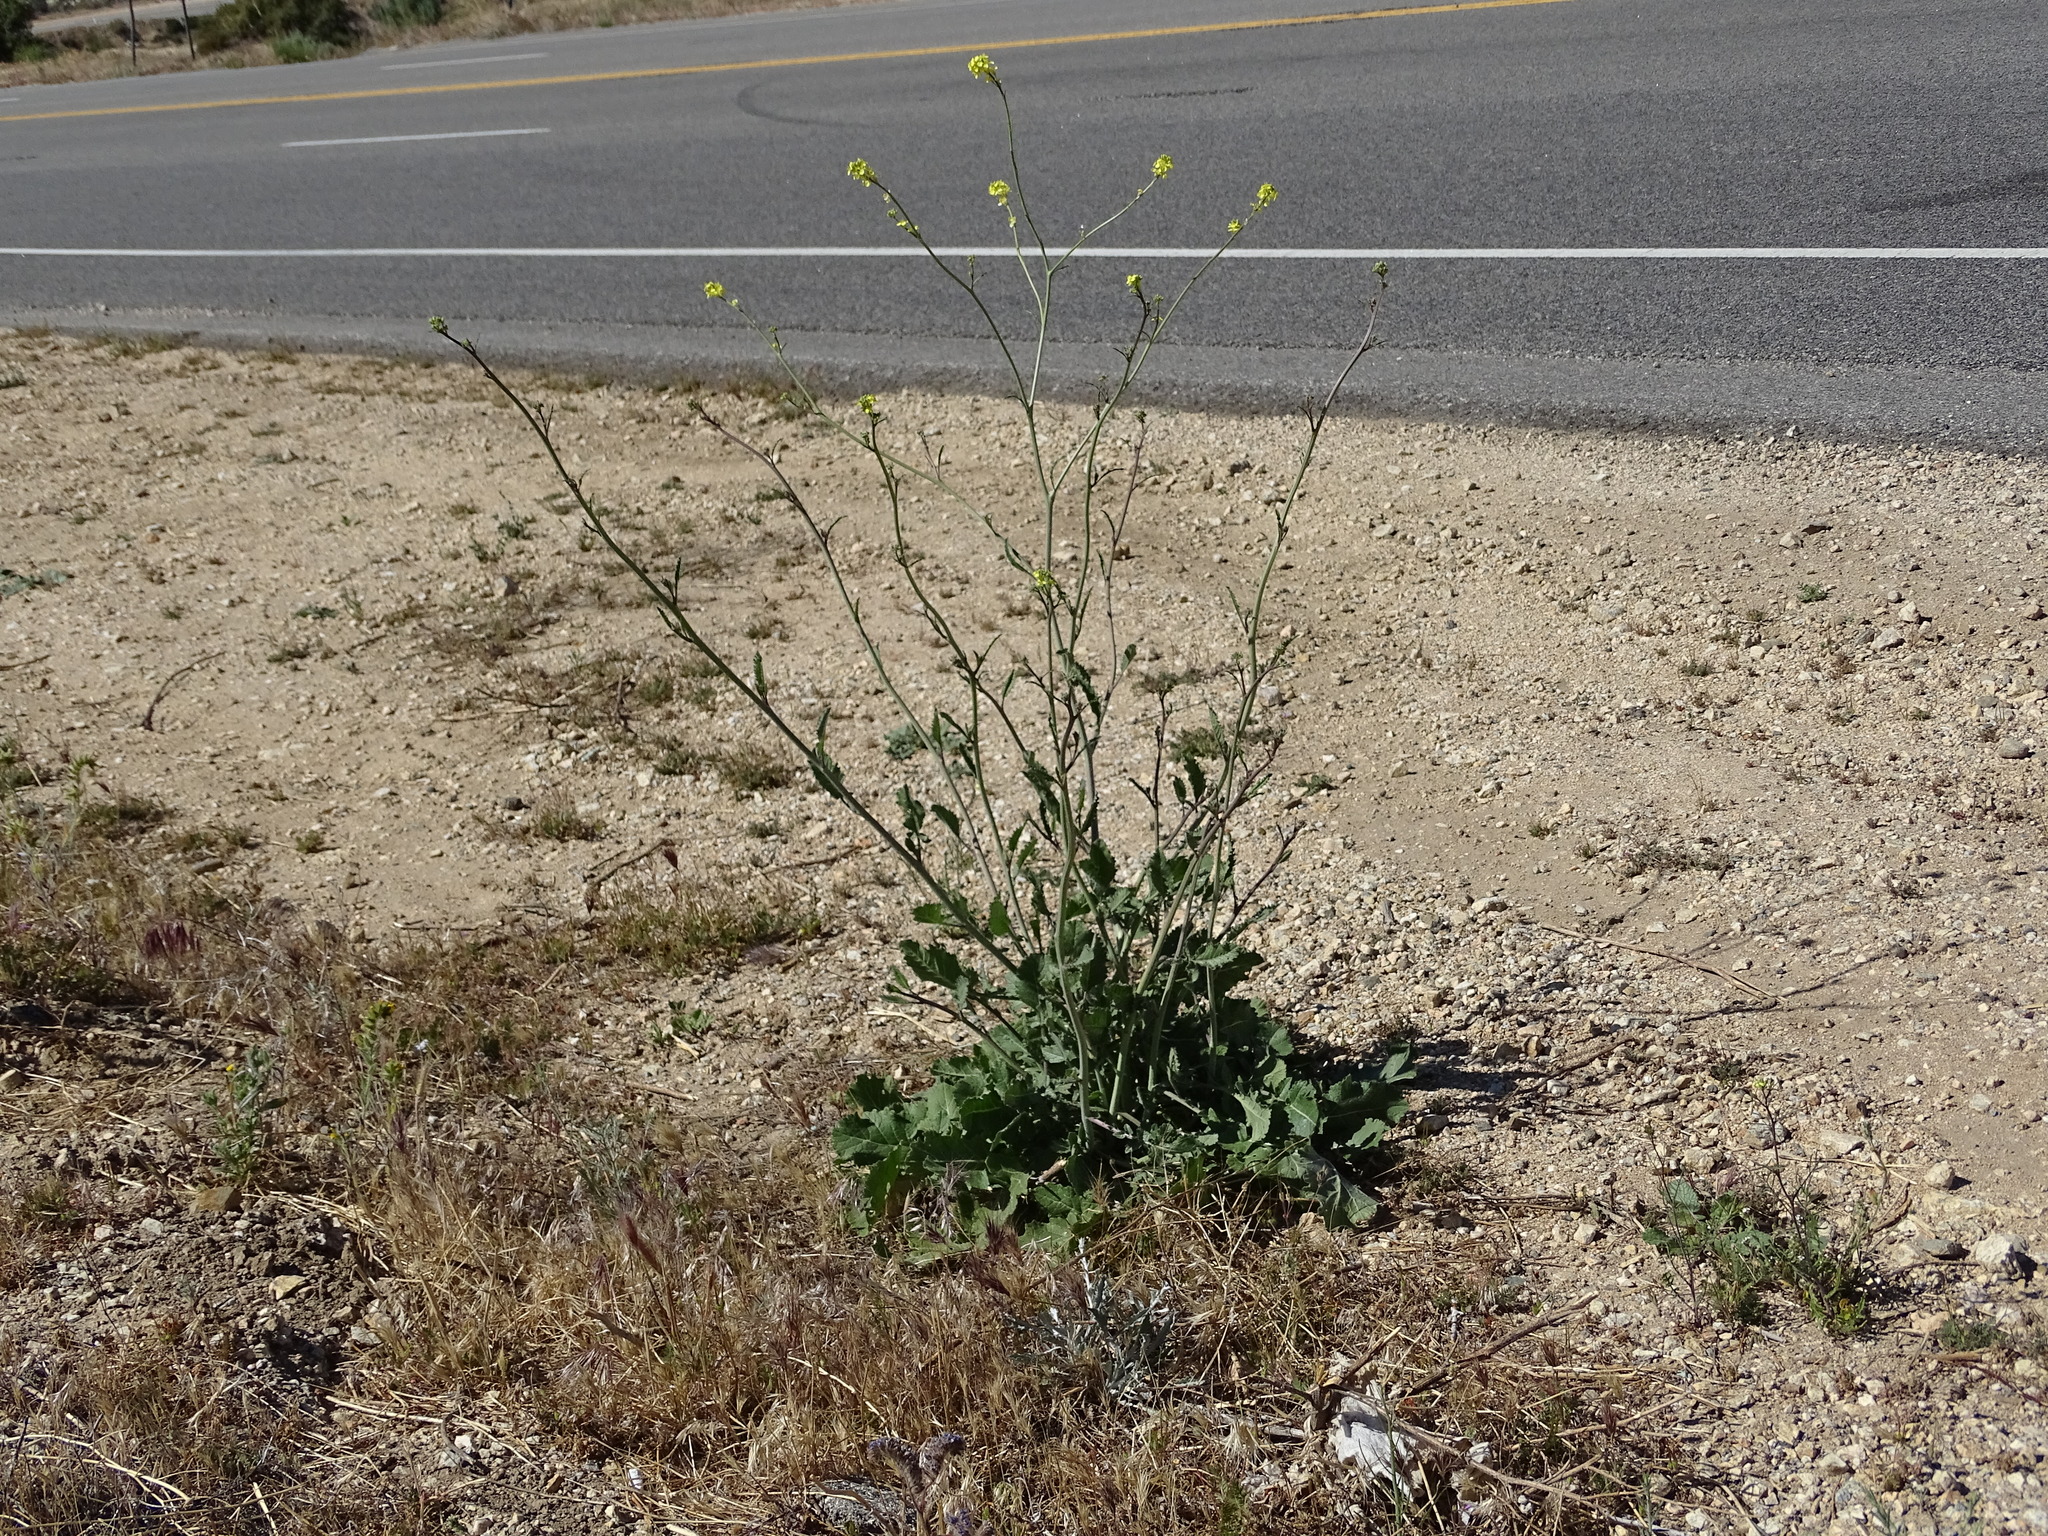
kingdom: Plantae
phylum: Tracheophyta
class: Magnoliopsida
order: Brassicales
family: Brassicaceae
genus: Hirschfeldia
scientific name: Hirschfeldia incana
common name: Hoary mustard
